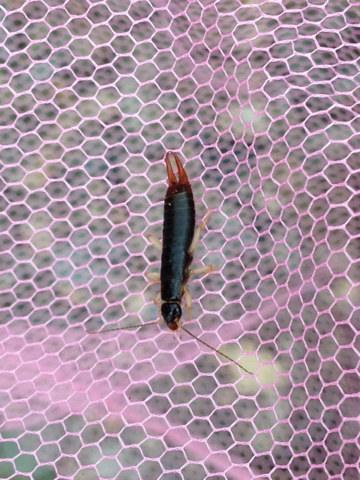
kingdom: Animalia
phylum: Arthropoda
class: Insecta
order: Dermaptera
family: Anisolabididae
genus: Anisolabis
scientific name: Anisolabis maritima
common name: Maritime earwig
